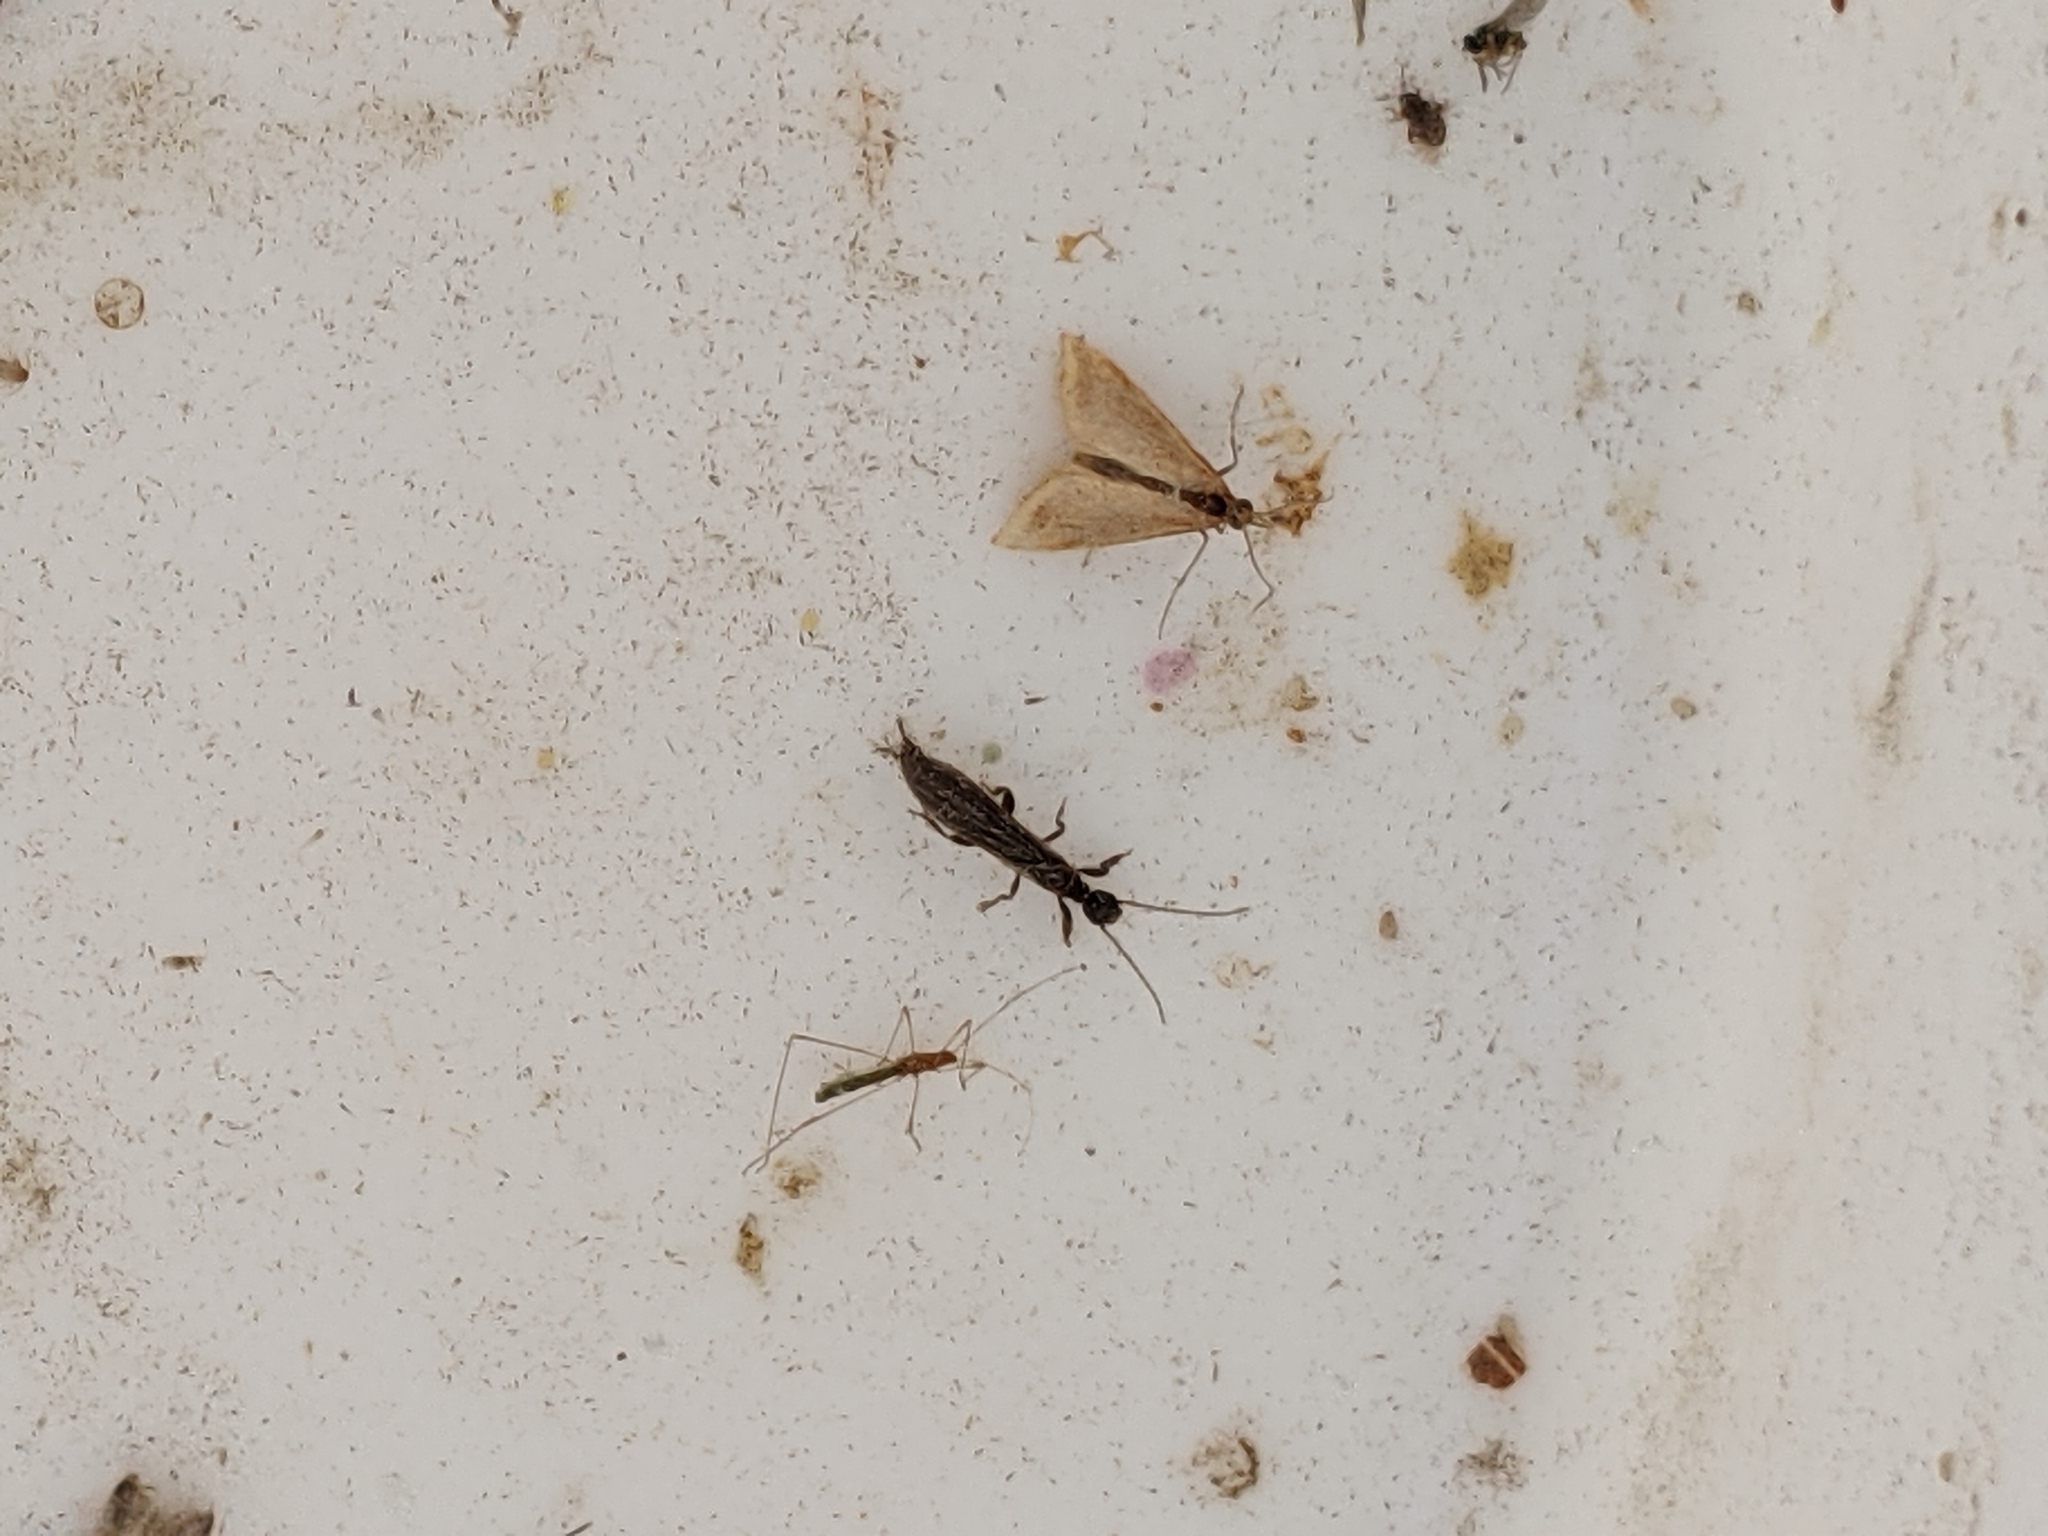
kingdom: Animalia
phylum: Arthropoda
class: Insecta
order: Embioptera
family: Oligotomidae
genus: Oligotoma
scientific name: Oligotoma nigra
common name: Black webspinner
